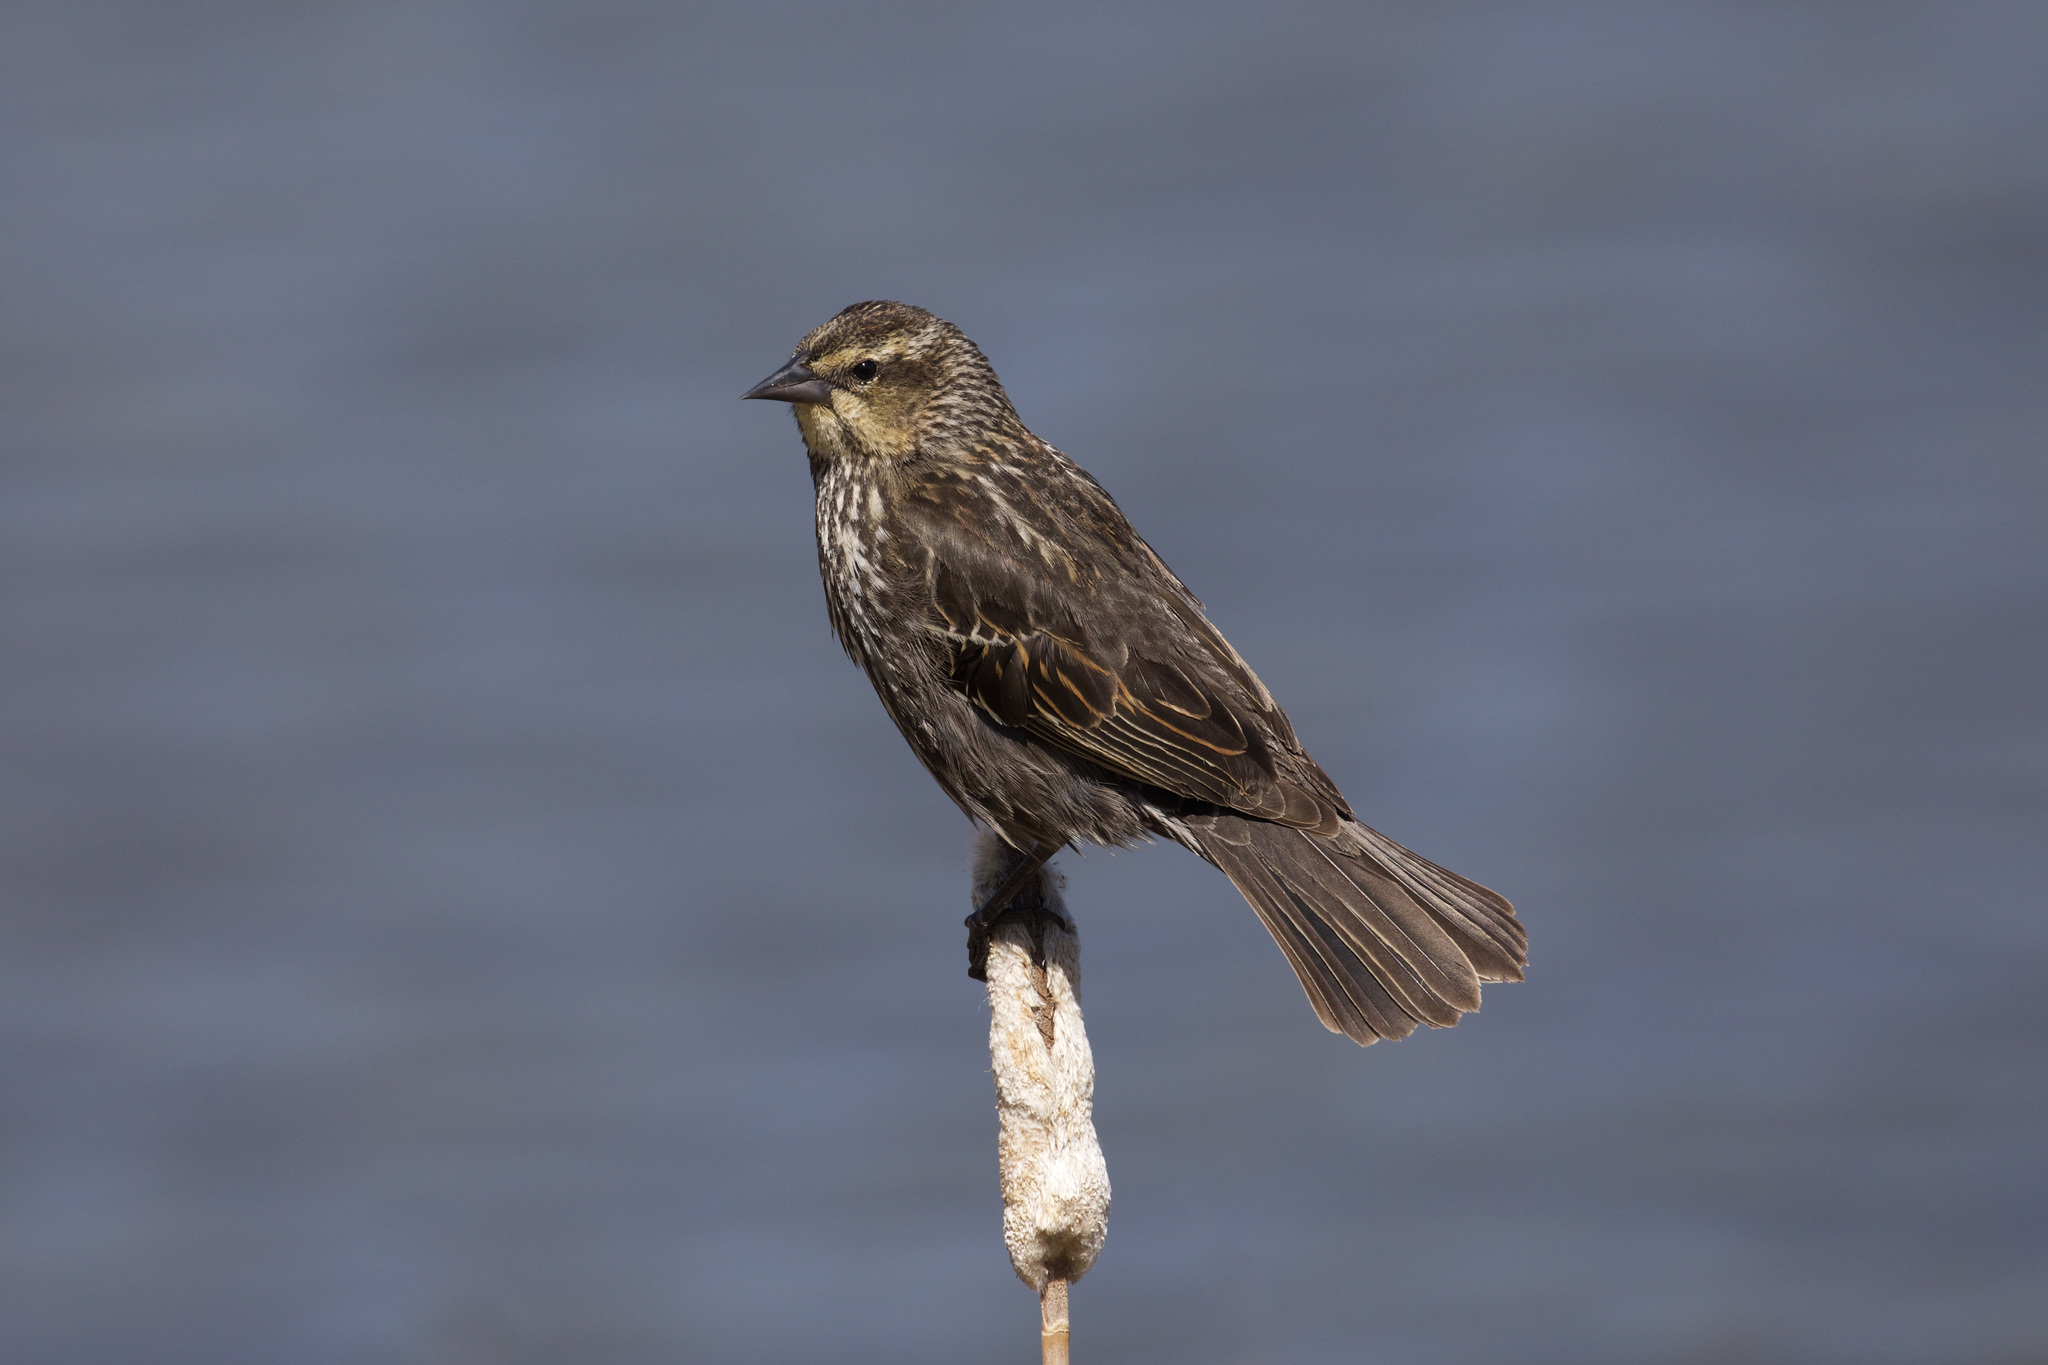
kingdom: Animalia
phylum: Chordata
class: Aves
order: Passeriformes
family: Icteridae
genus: Agelaius
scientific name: Agelaius phoeniceus
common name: Red-winged blackbird
